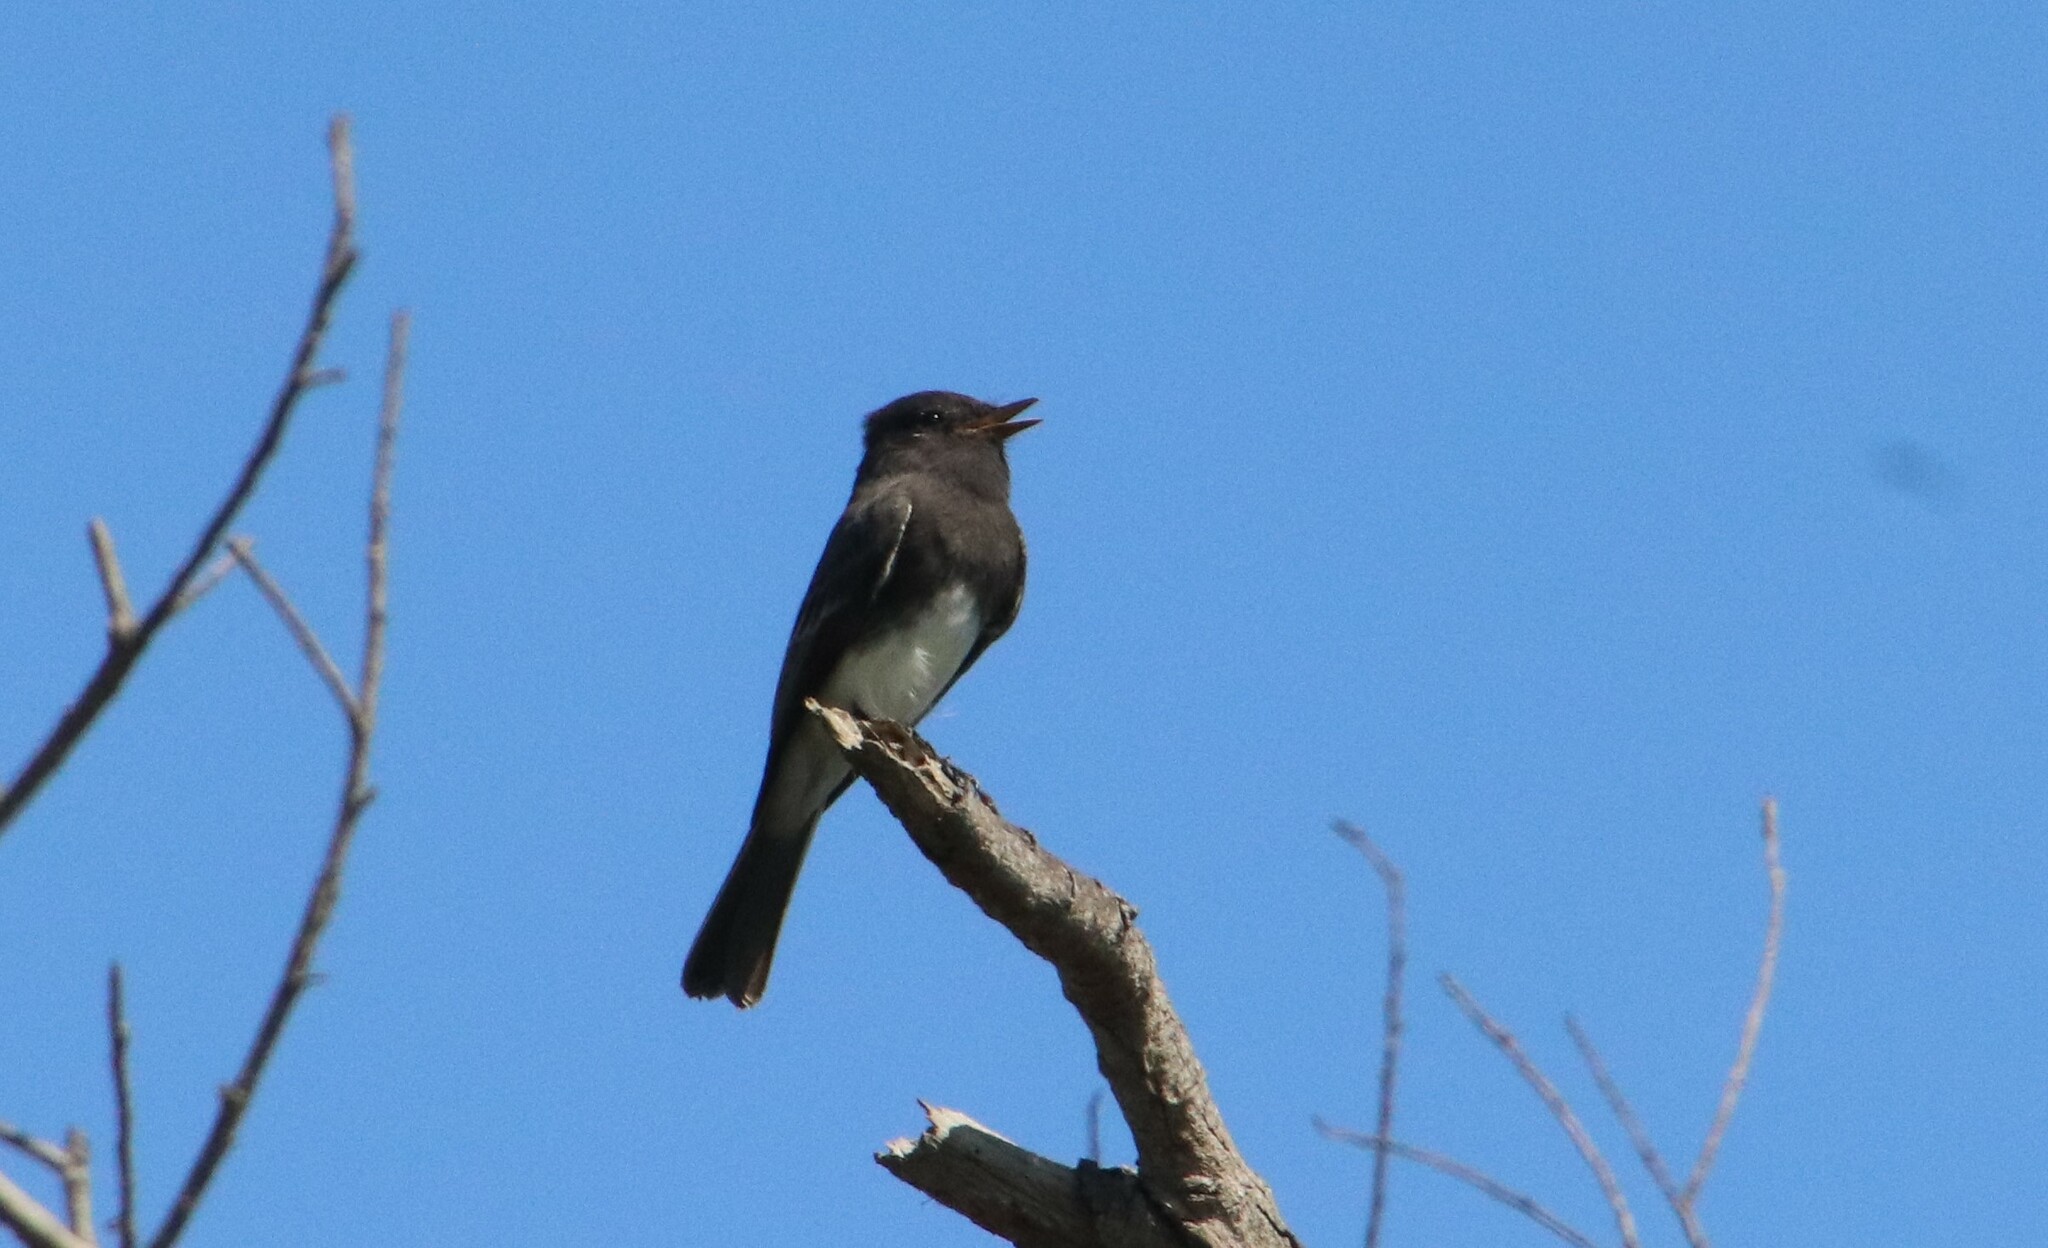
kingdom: Animalia
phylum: Chordata
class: Aves
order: Passeriformes
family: Tyrannidae
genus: Sayornis
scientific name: Sayornis nigricans
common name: Black phoebe
